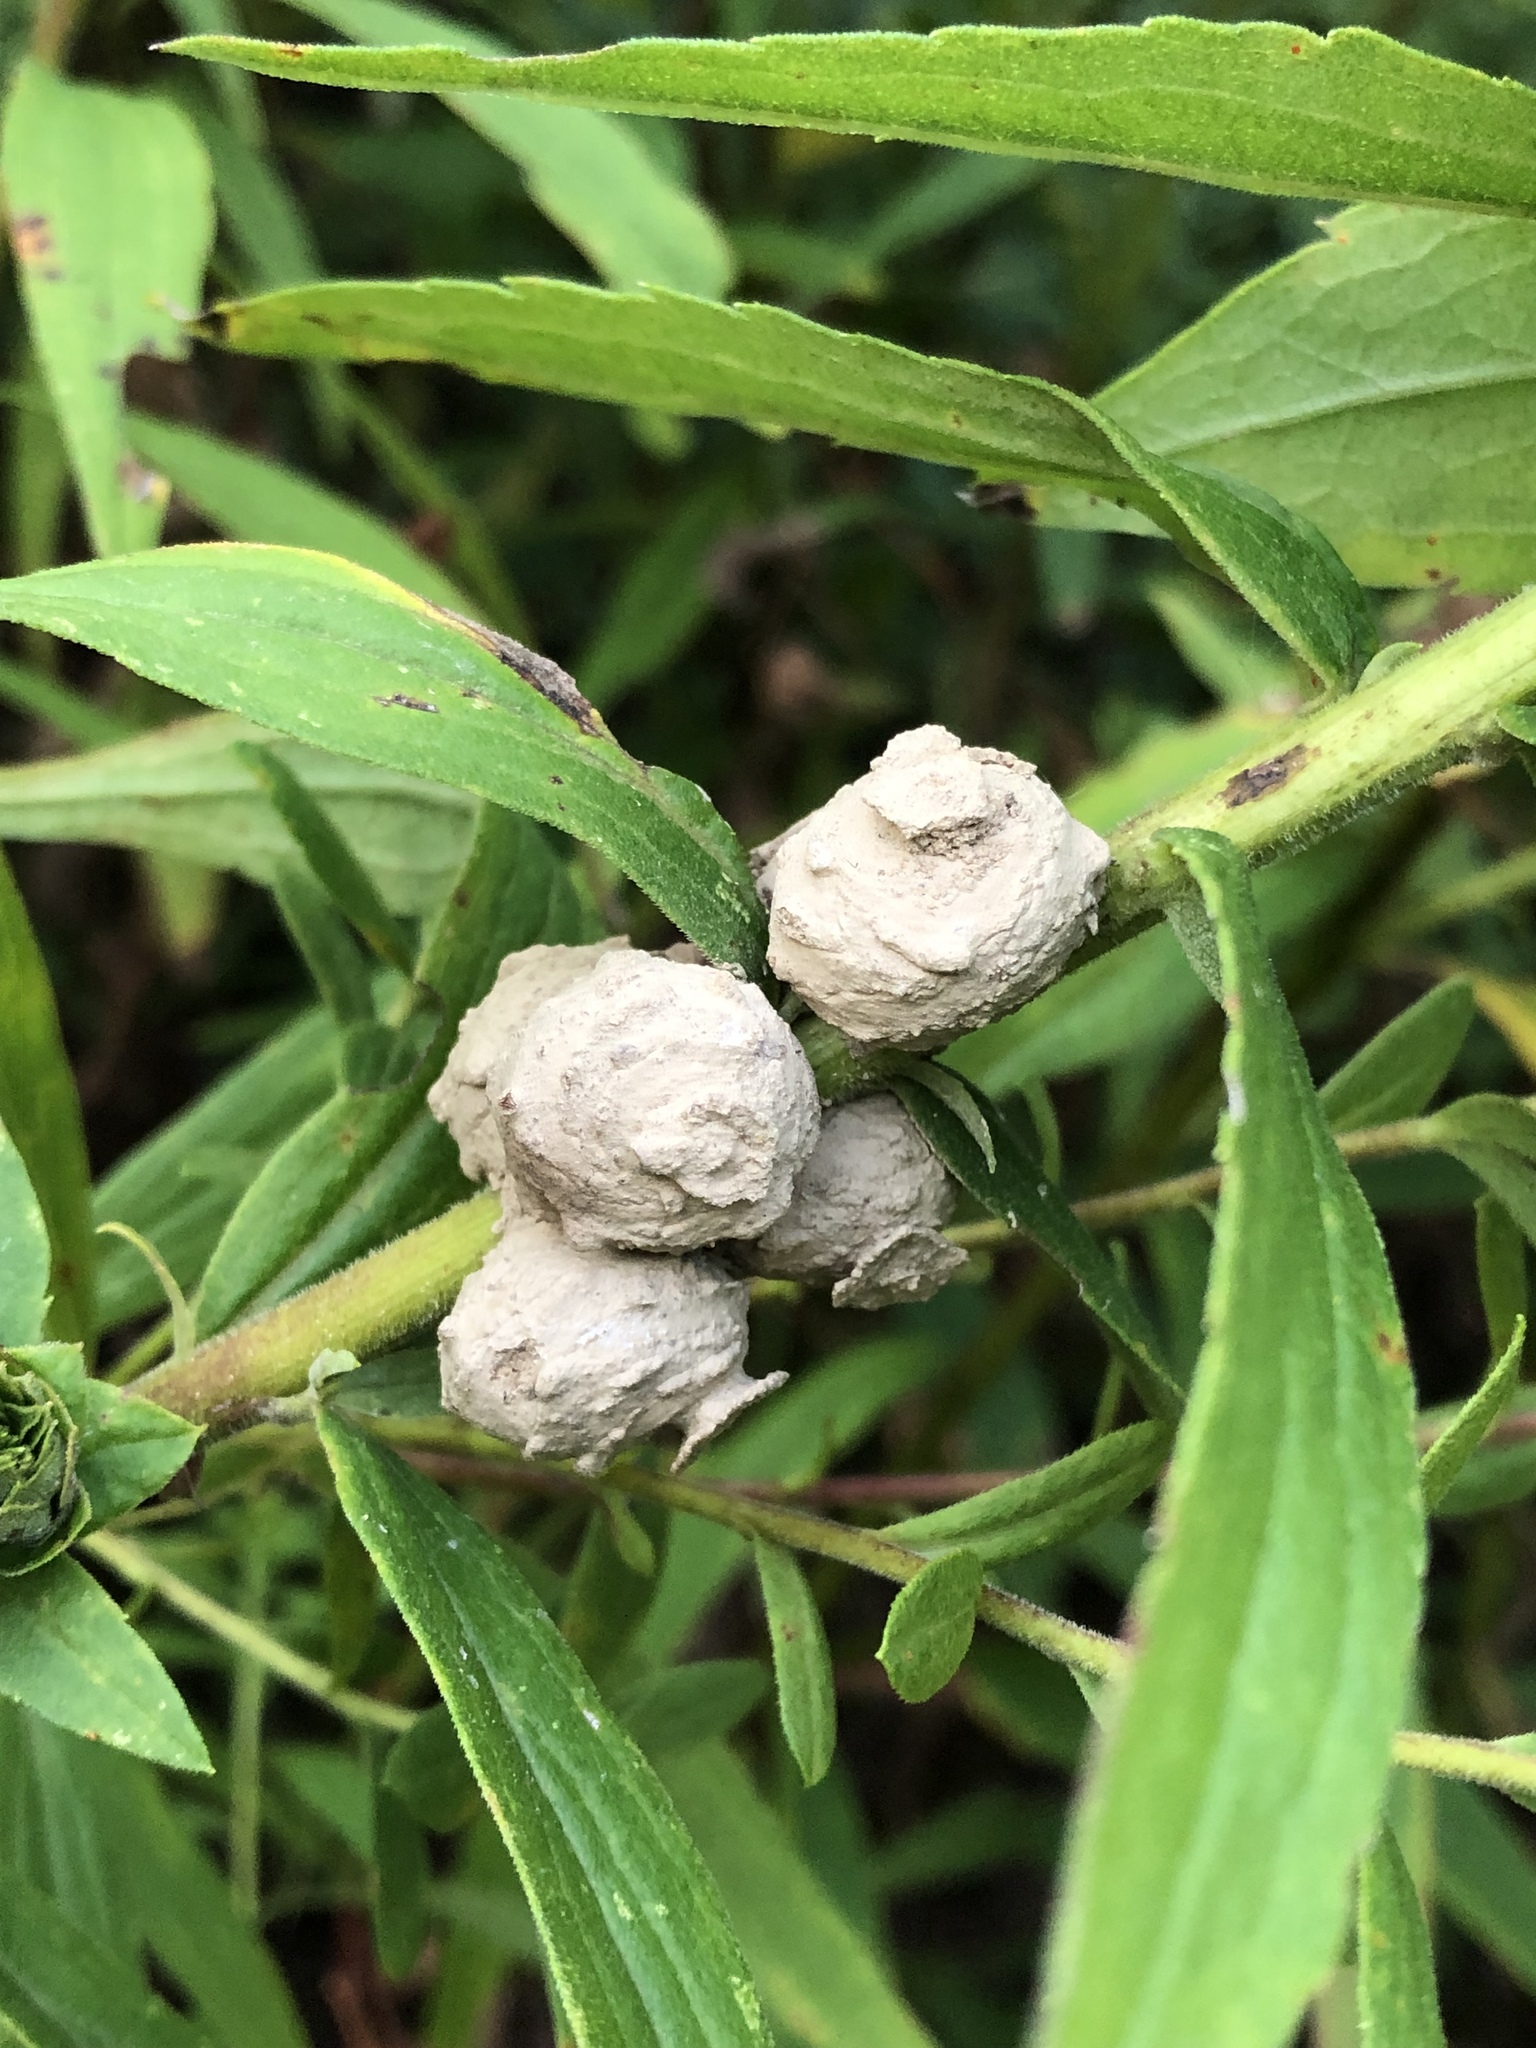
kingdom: Animalia
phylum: Arthropoda
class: Insecta
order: Hymenoptera
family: Vespidae
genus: Eumenes
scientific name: Eumenes
